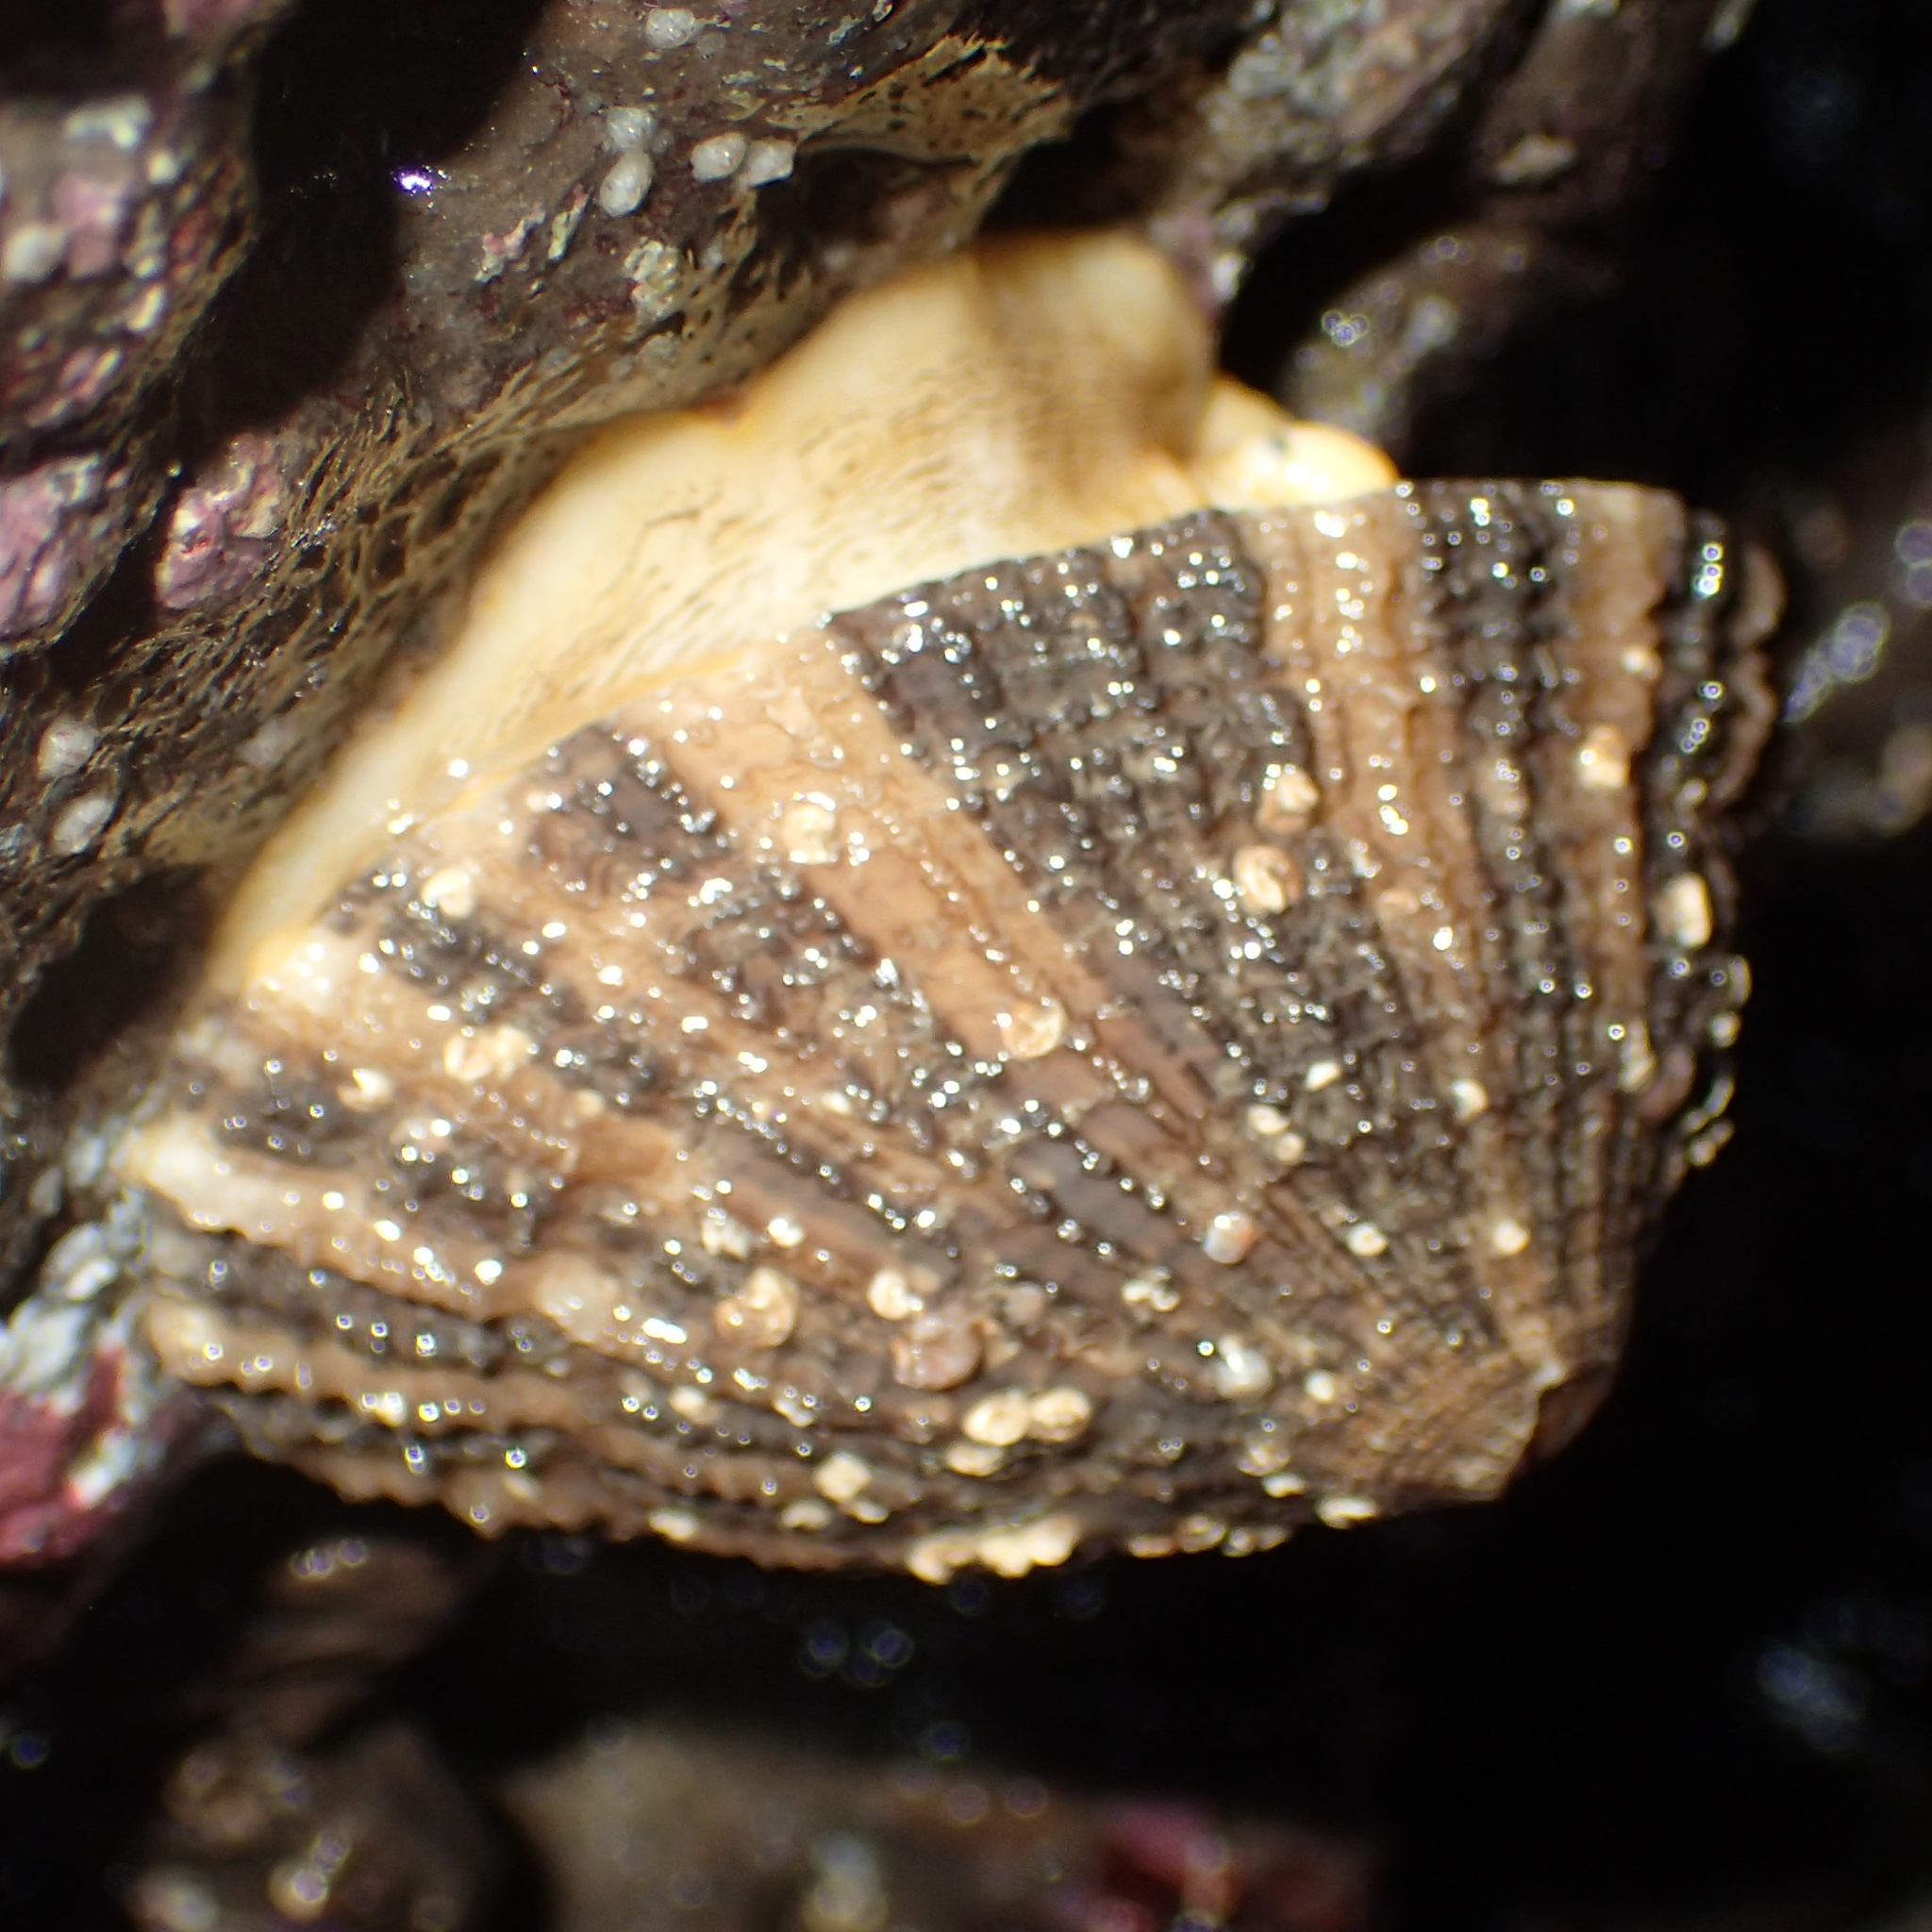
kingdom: Animalia
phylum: Mollusca
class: Gastropoda
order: Lepetellida
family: Fissurellidae
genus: Diodora
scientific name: Diodora aspera
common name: Rough keyhole limpet
